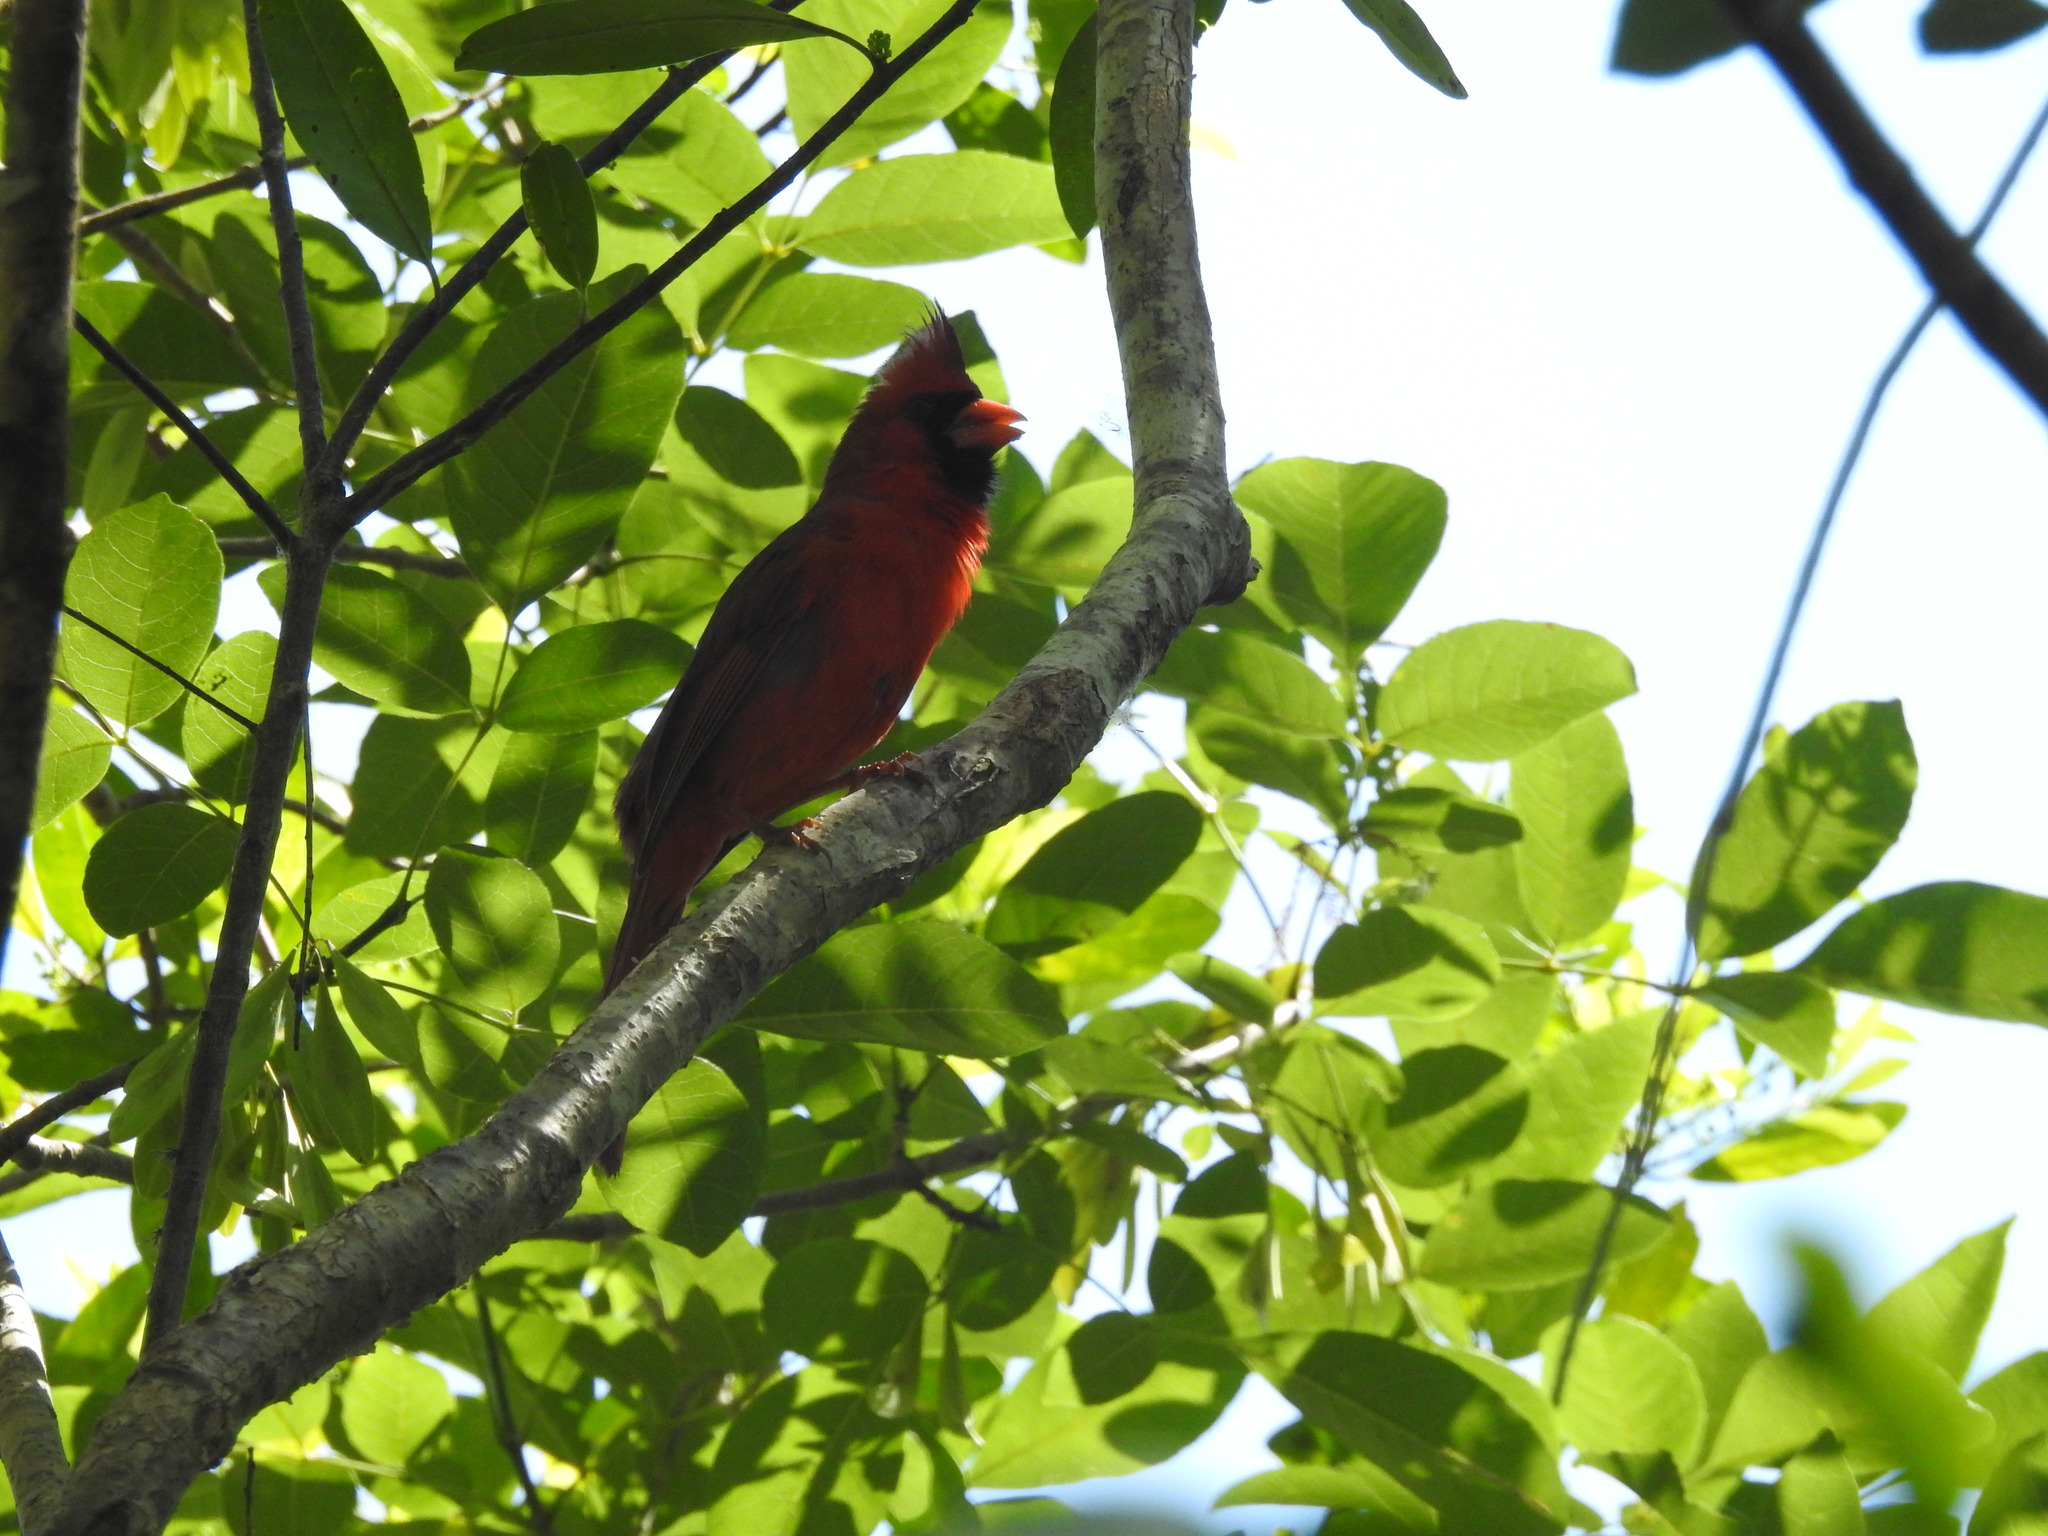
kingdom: Animalia
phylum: Chordata
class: Aves
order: Passeriformes
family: Cardinalidae
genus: Cardinalis
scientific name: Cardinalis cardinalis
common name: Northern cardinal
